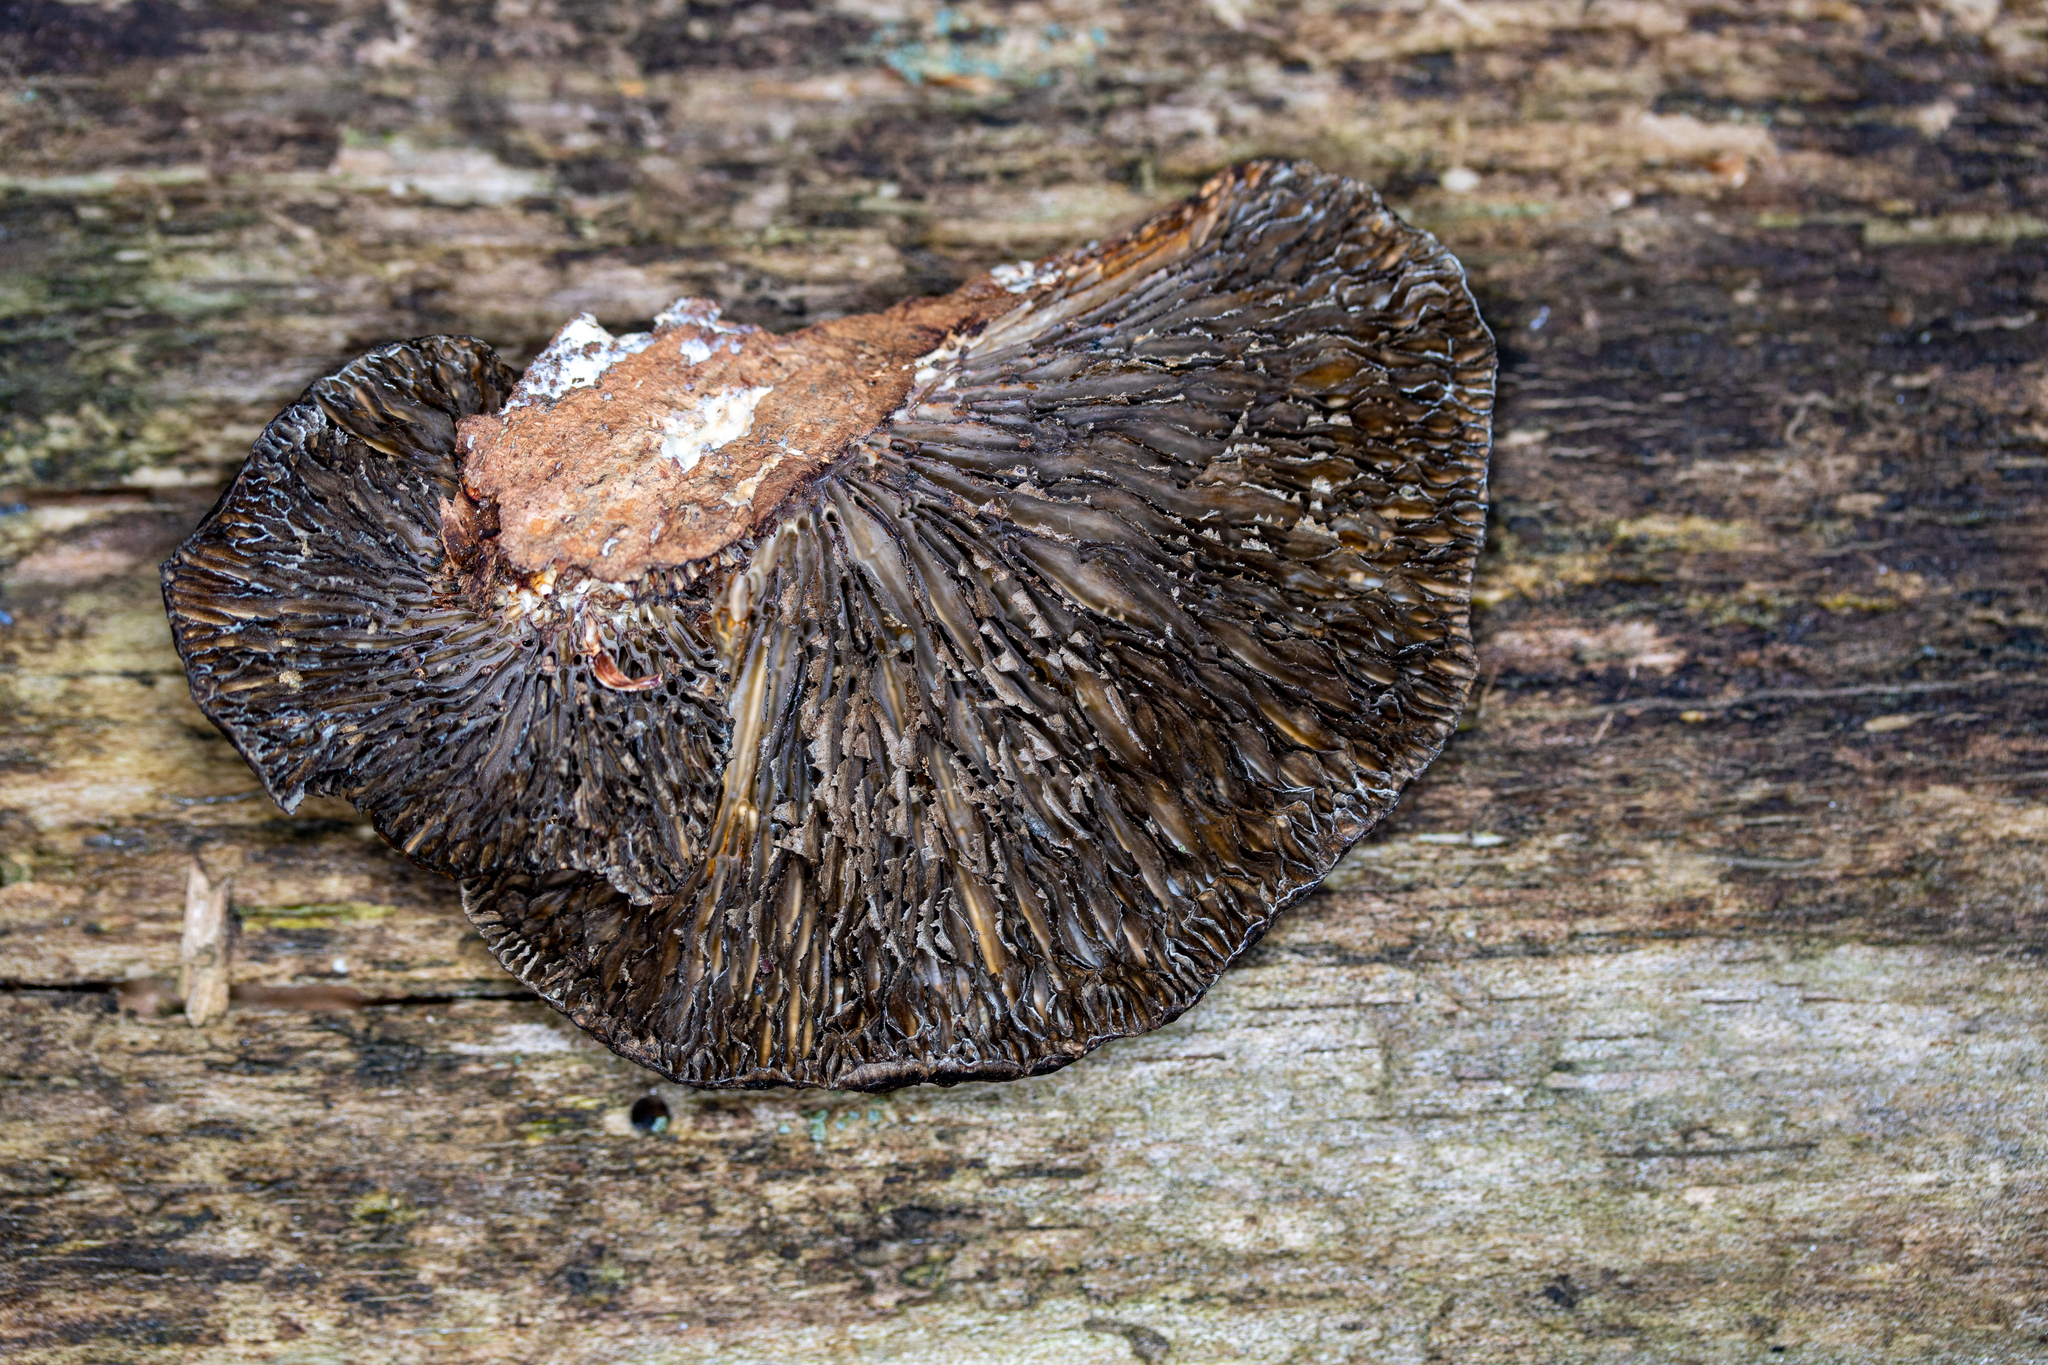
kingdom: Fungi
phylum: Basidiomycota
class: Agaricomycetes
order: Polyporales
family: Polyporaceae
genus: Lenzites
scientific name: Lenzites betulinus
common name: Birch mazegill
